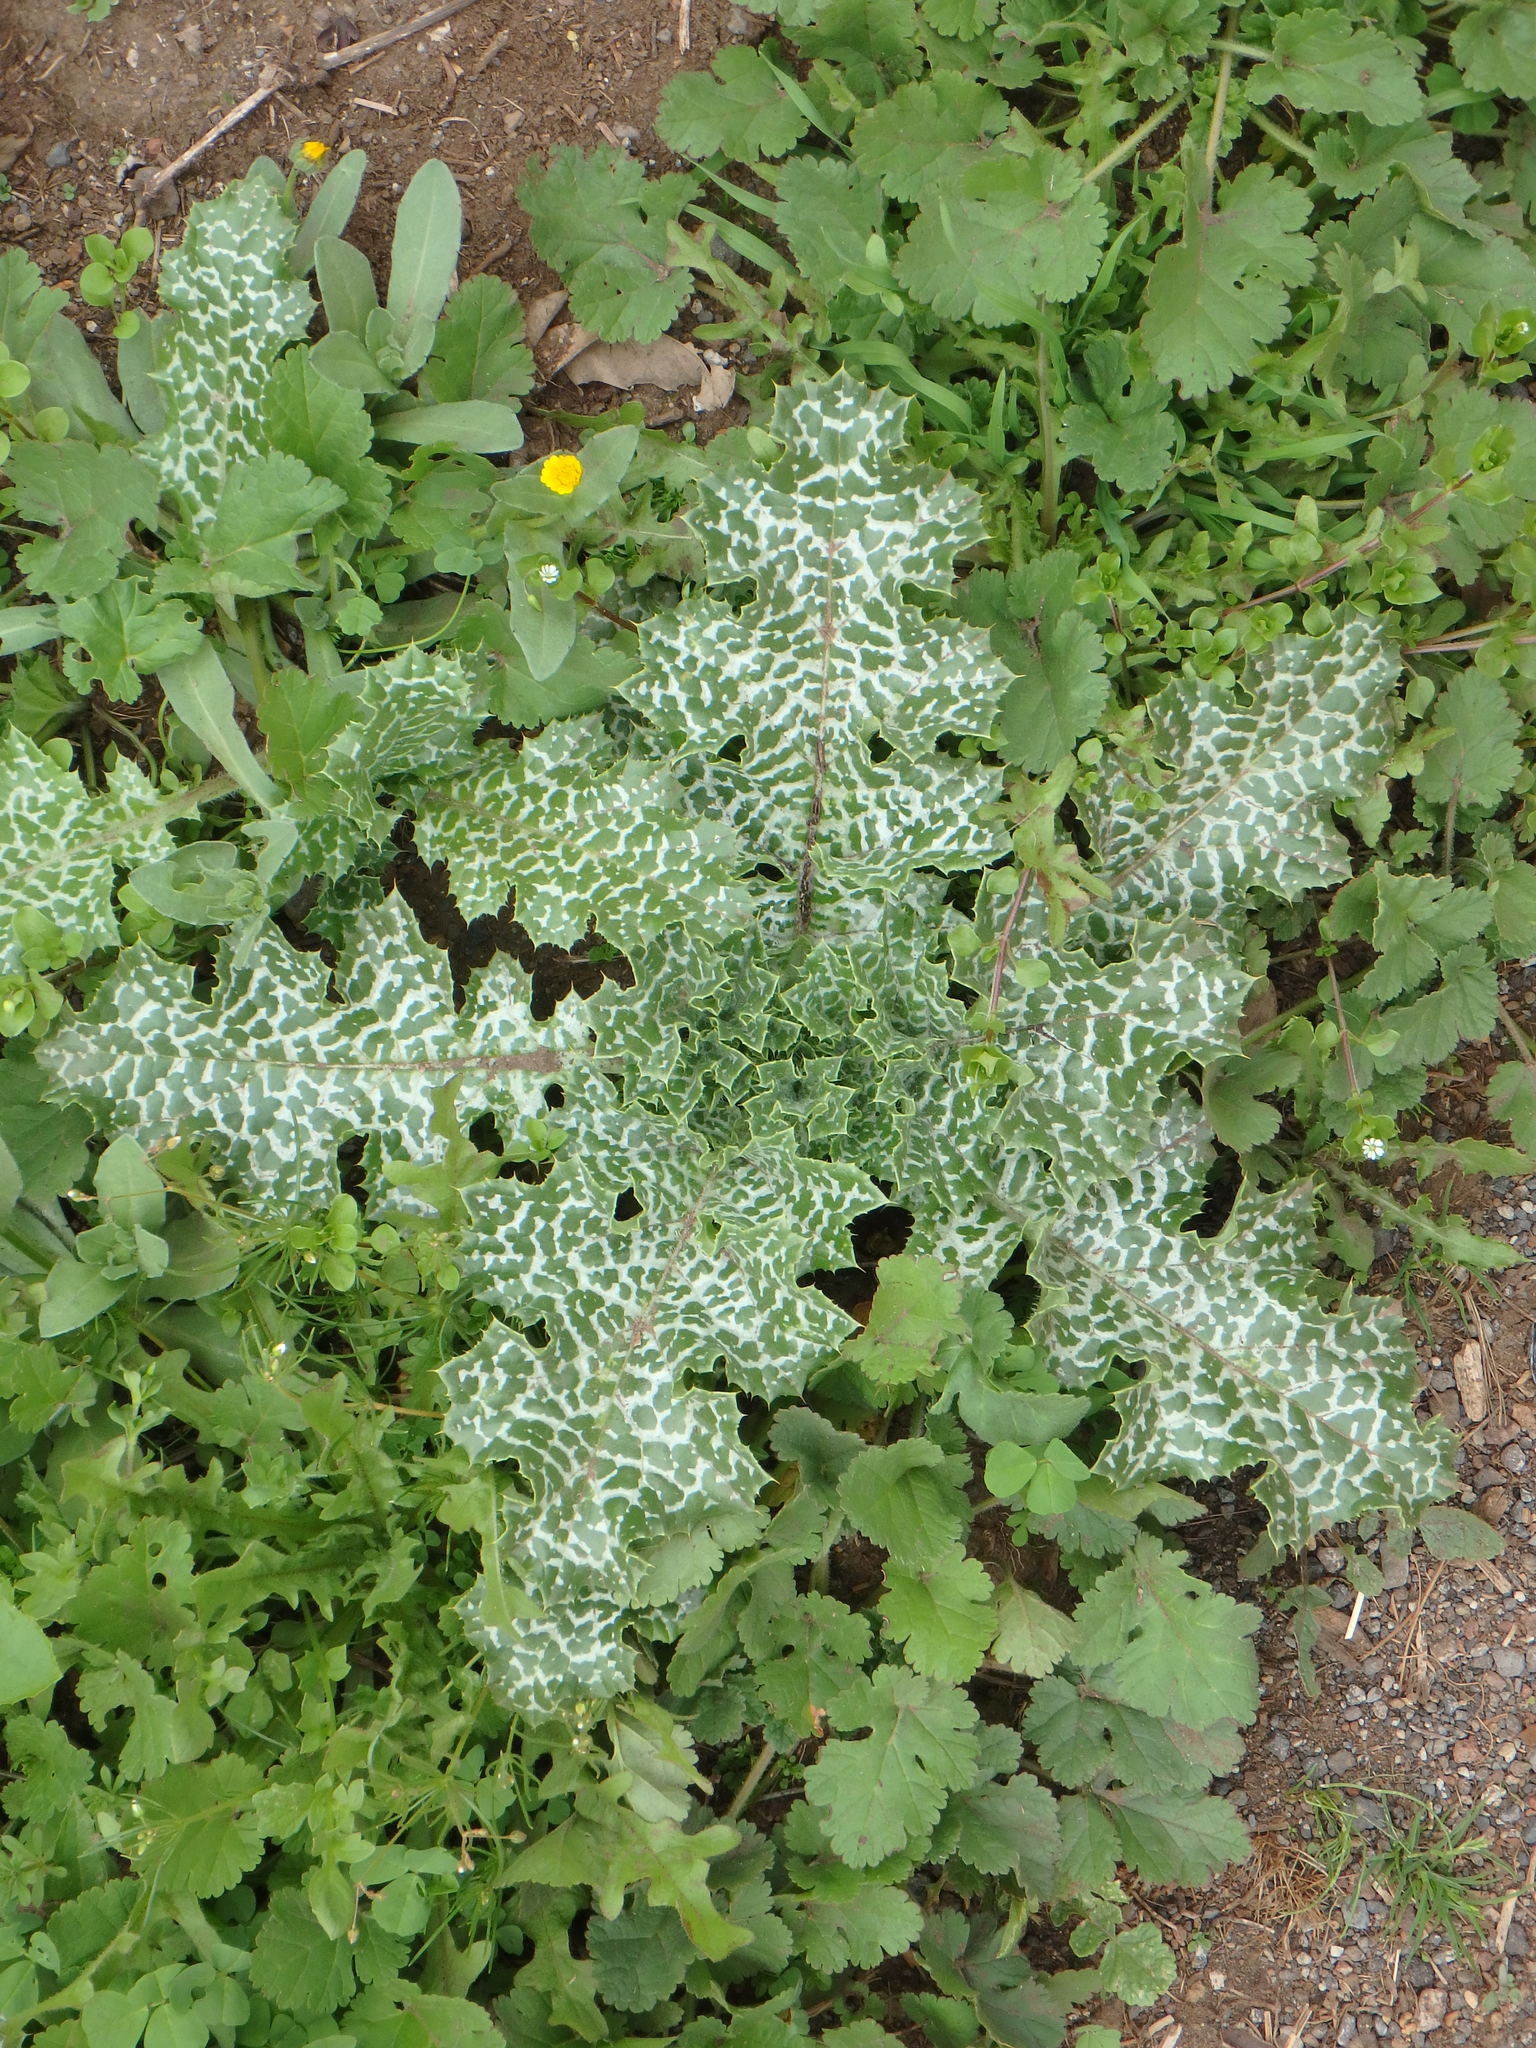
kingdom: Plantae
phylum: Tracheophyta
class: Magnoliopsida
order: Asterales
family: Asteraceae
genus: Silybum
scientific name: Silybum marianum
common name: Milk thistle
